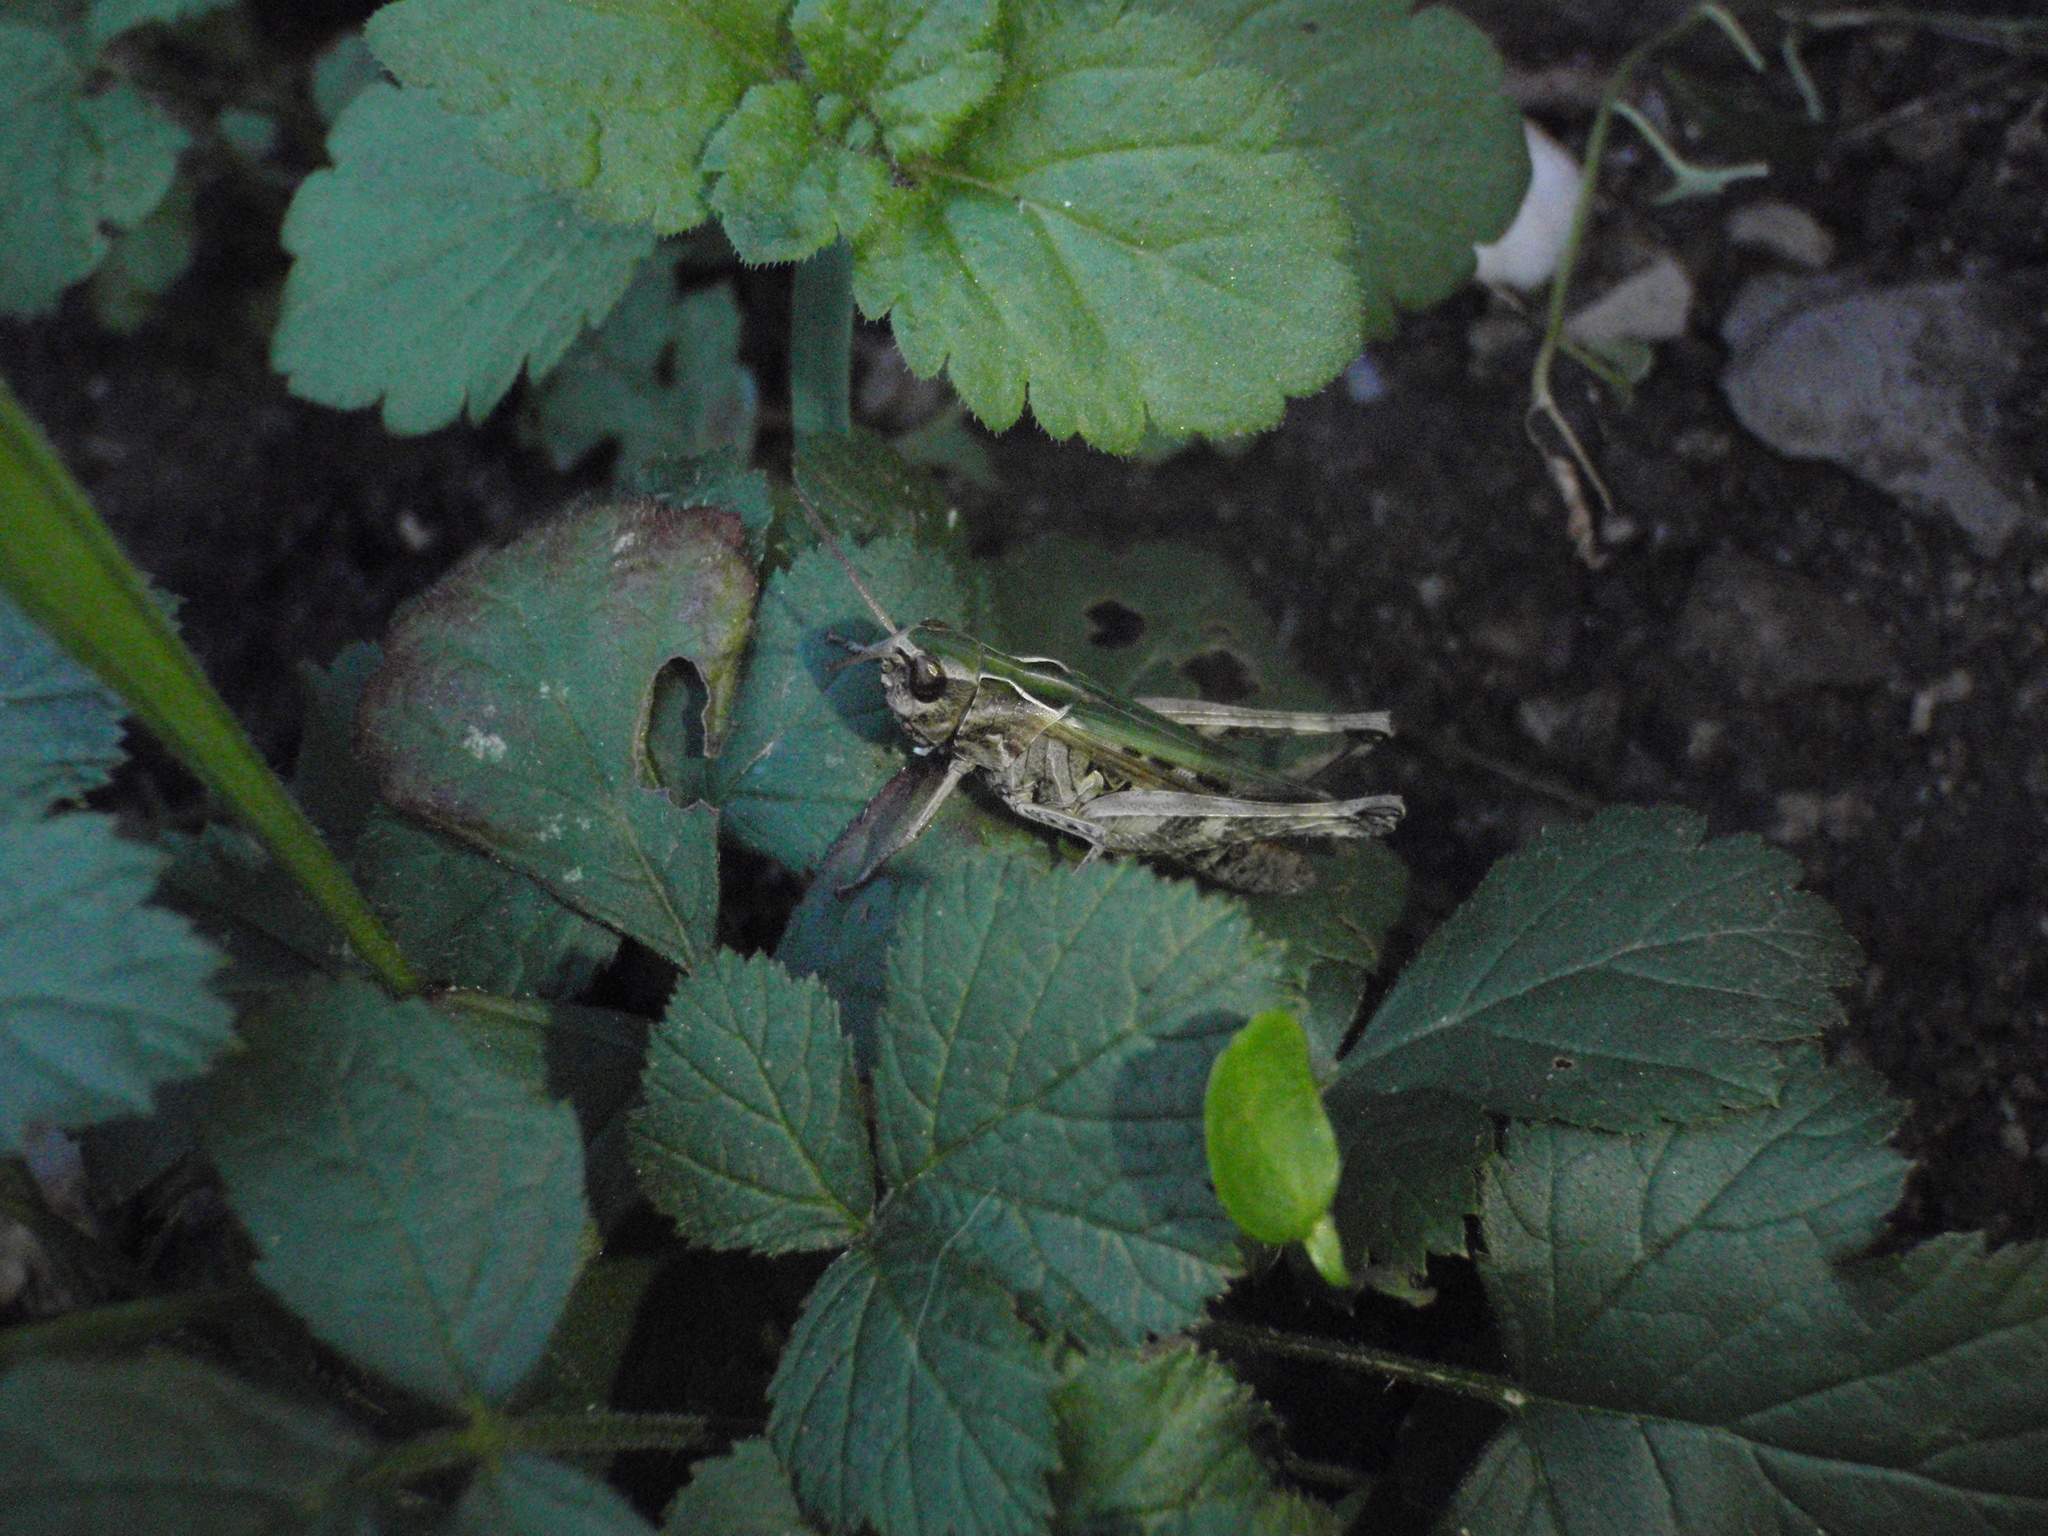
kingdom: Animalia
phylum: Arthropoda
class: Insecta
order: Orthoptera
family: Acrididae
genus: Omocestus
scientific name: Omocestus rufipes
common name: Woodland grasshopper
